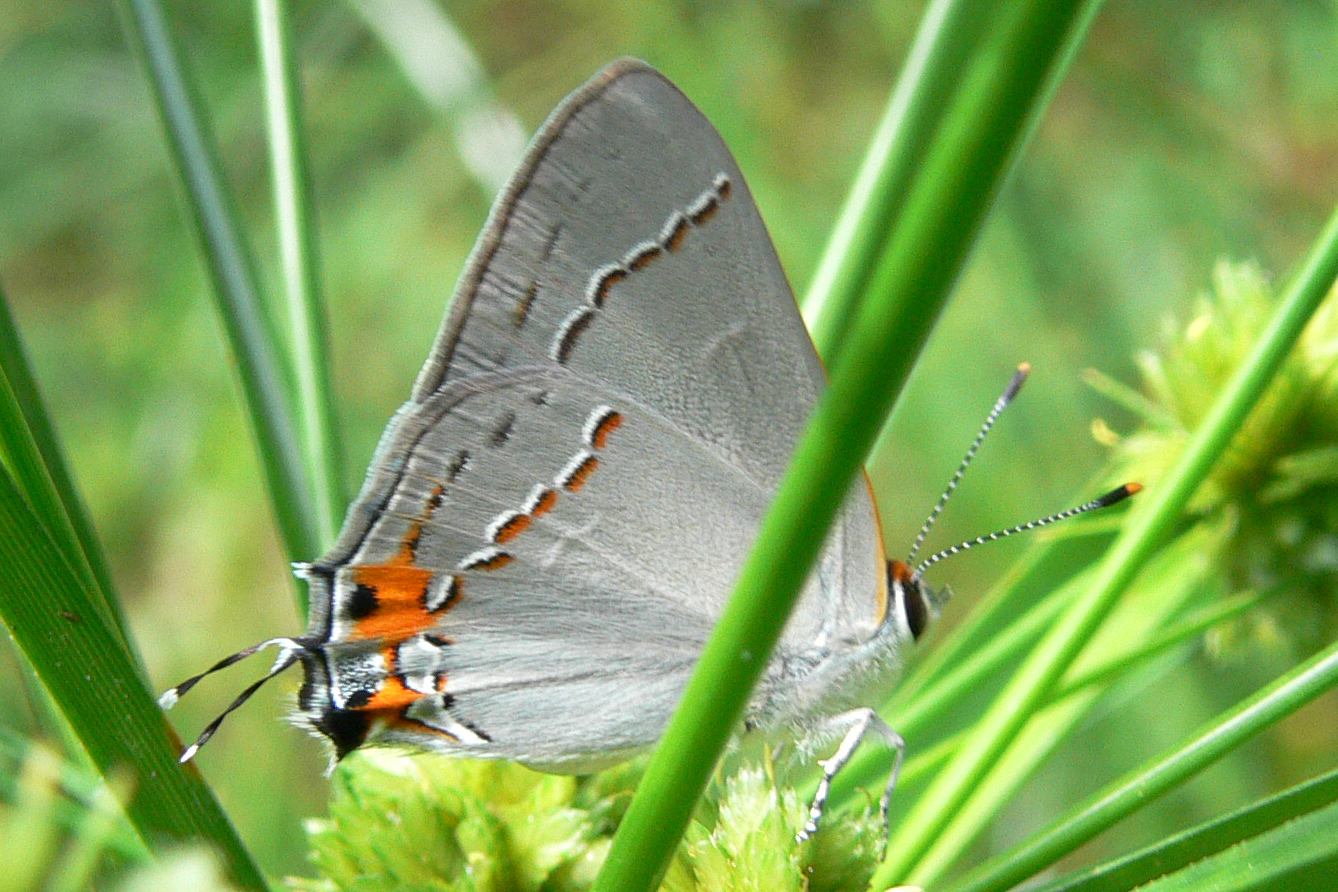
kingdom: Animalia
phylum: Arthropoda
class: Insecta
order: Lepidoptera
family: Lycaenidae
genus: Strymon
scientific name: Strymon melinus
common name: Gray hairstreak
